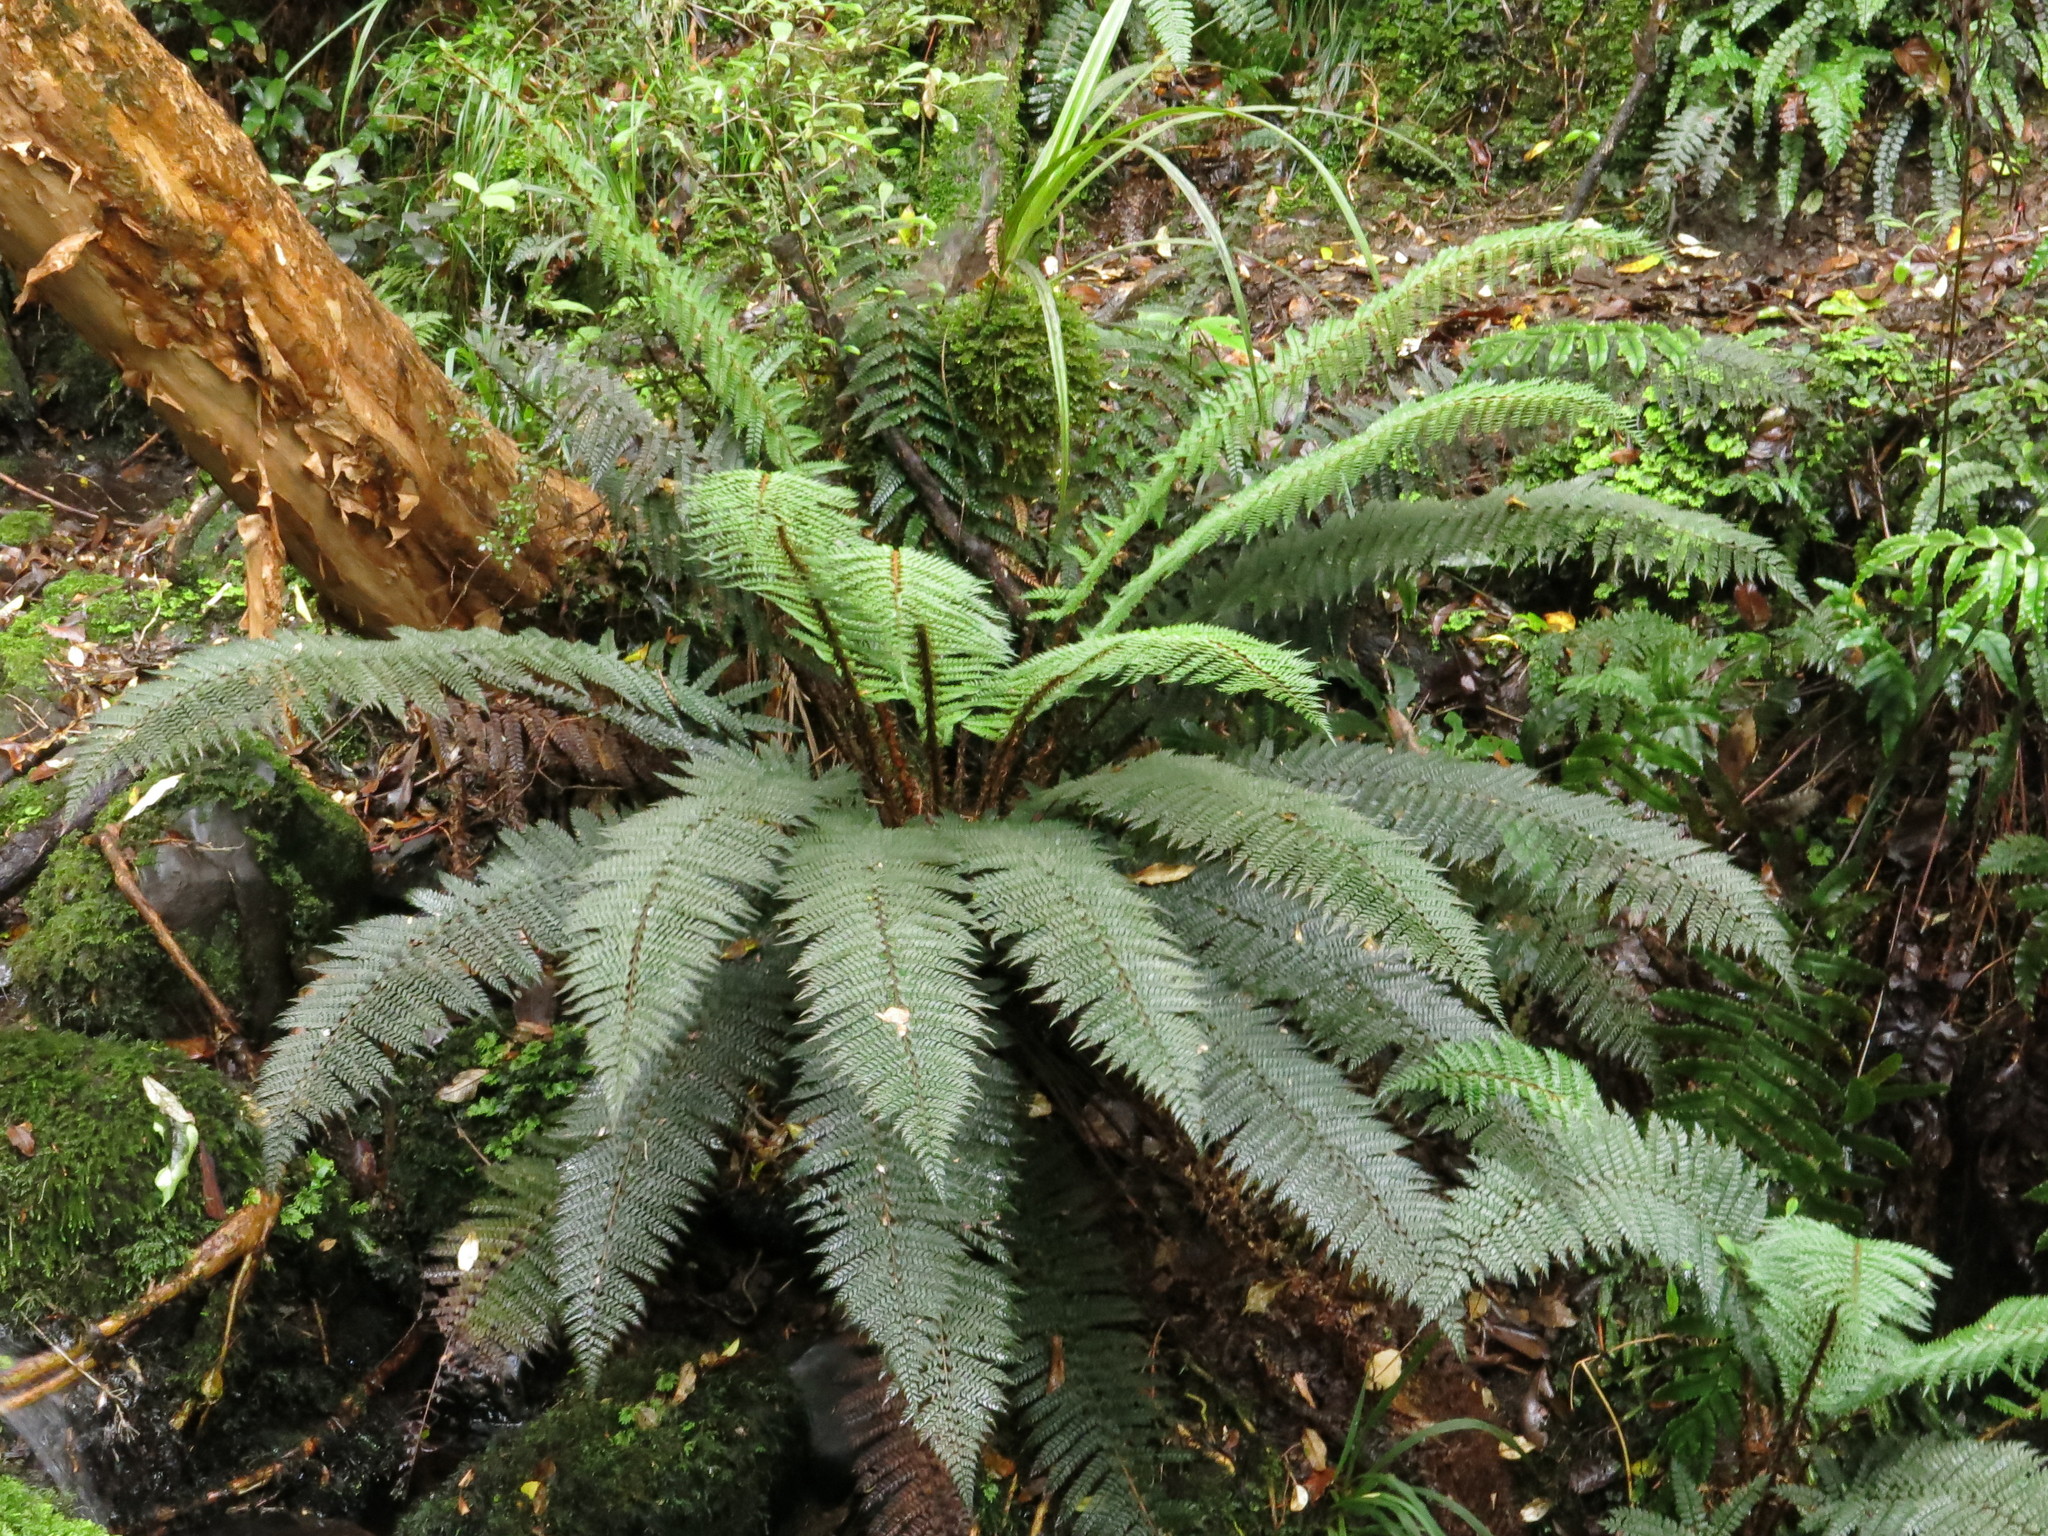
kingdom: Plantae
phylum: Tracheophyta
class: Polypodiopsida
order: Polypodiales
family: Dryopteridaceae
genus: Polystichum
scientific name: Polystichum vestitum
